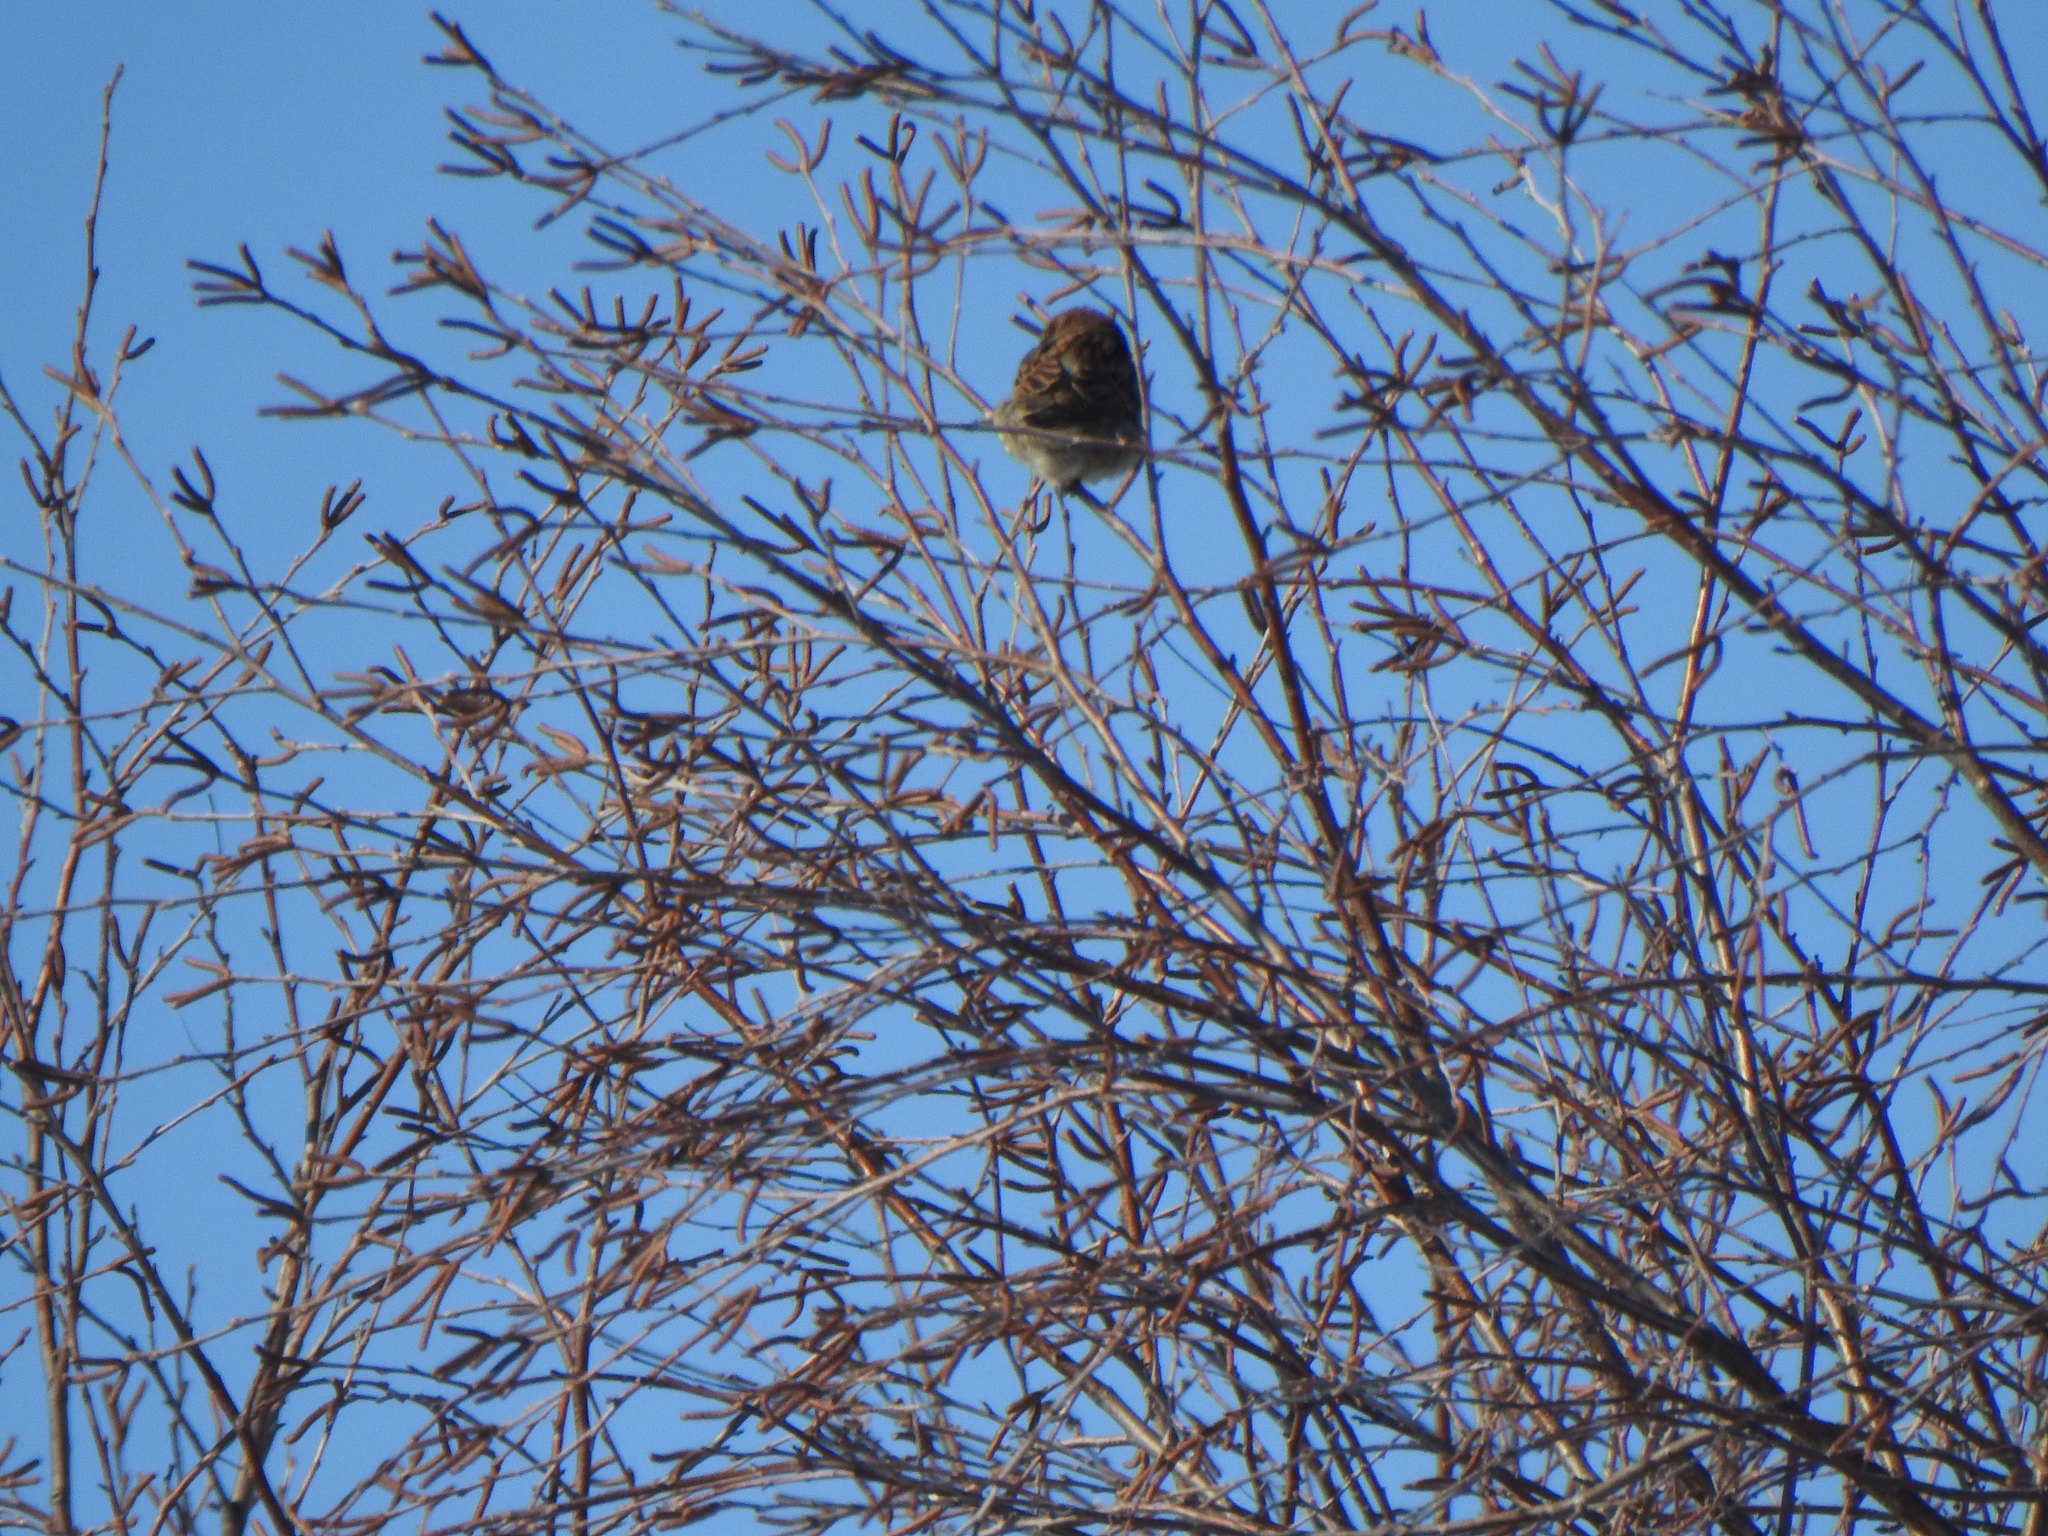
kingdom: Animalia
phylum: Chordata
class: Aves
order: Passeriformes
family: Passeridae
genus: Passer
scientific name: Passer domesticus
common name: House sparrow
